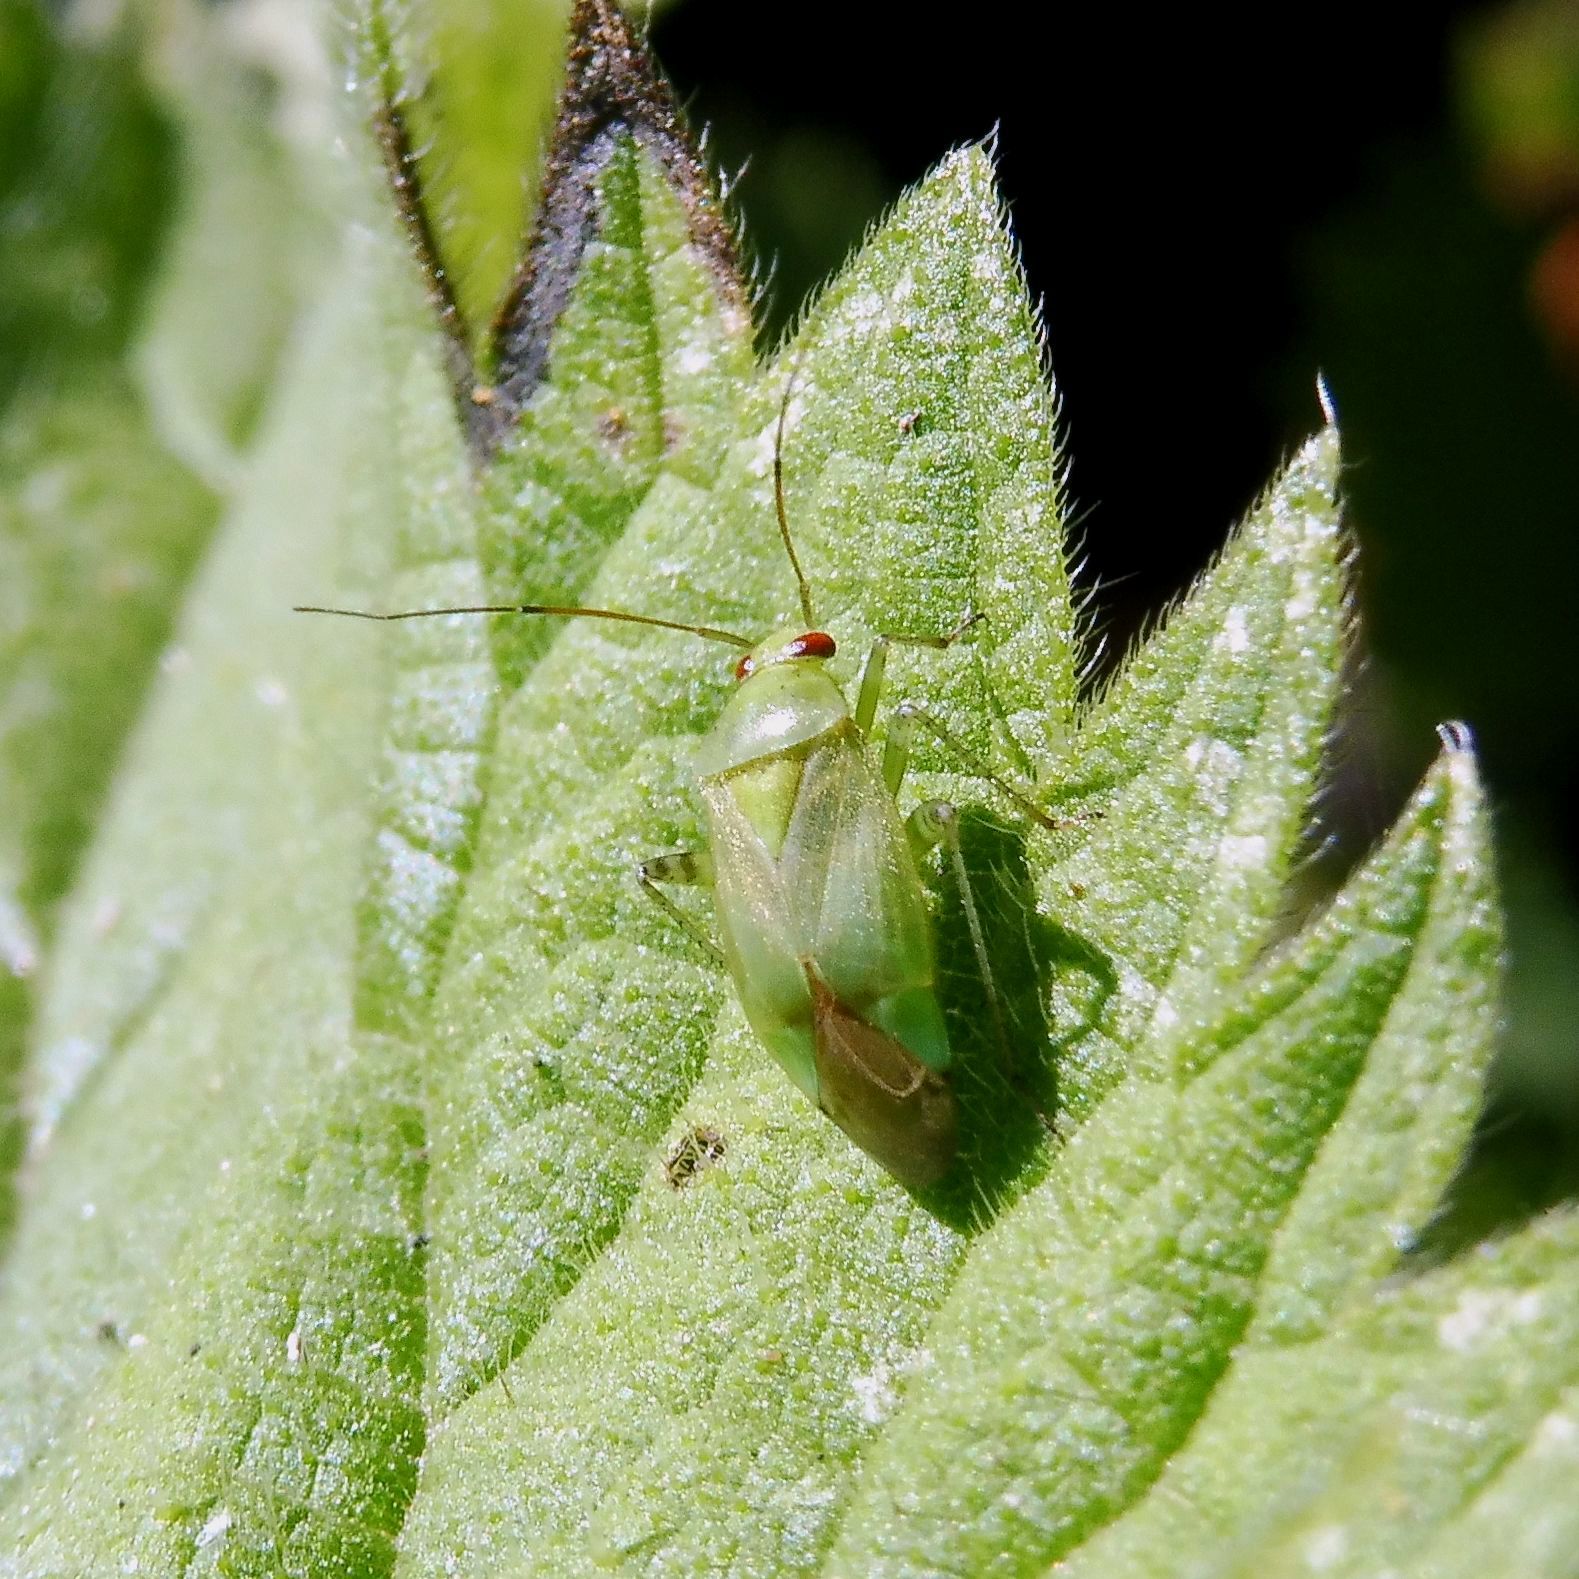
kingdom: Animalia
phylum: Arthropoda
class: Insecta
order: Hemiptera
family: Miridae
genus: Apolygus
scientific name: Apolygus spinolae
